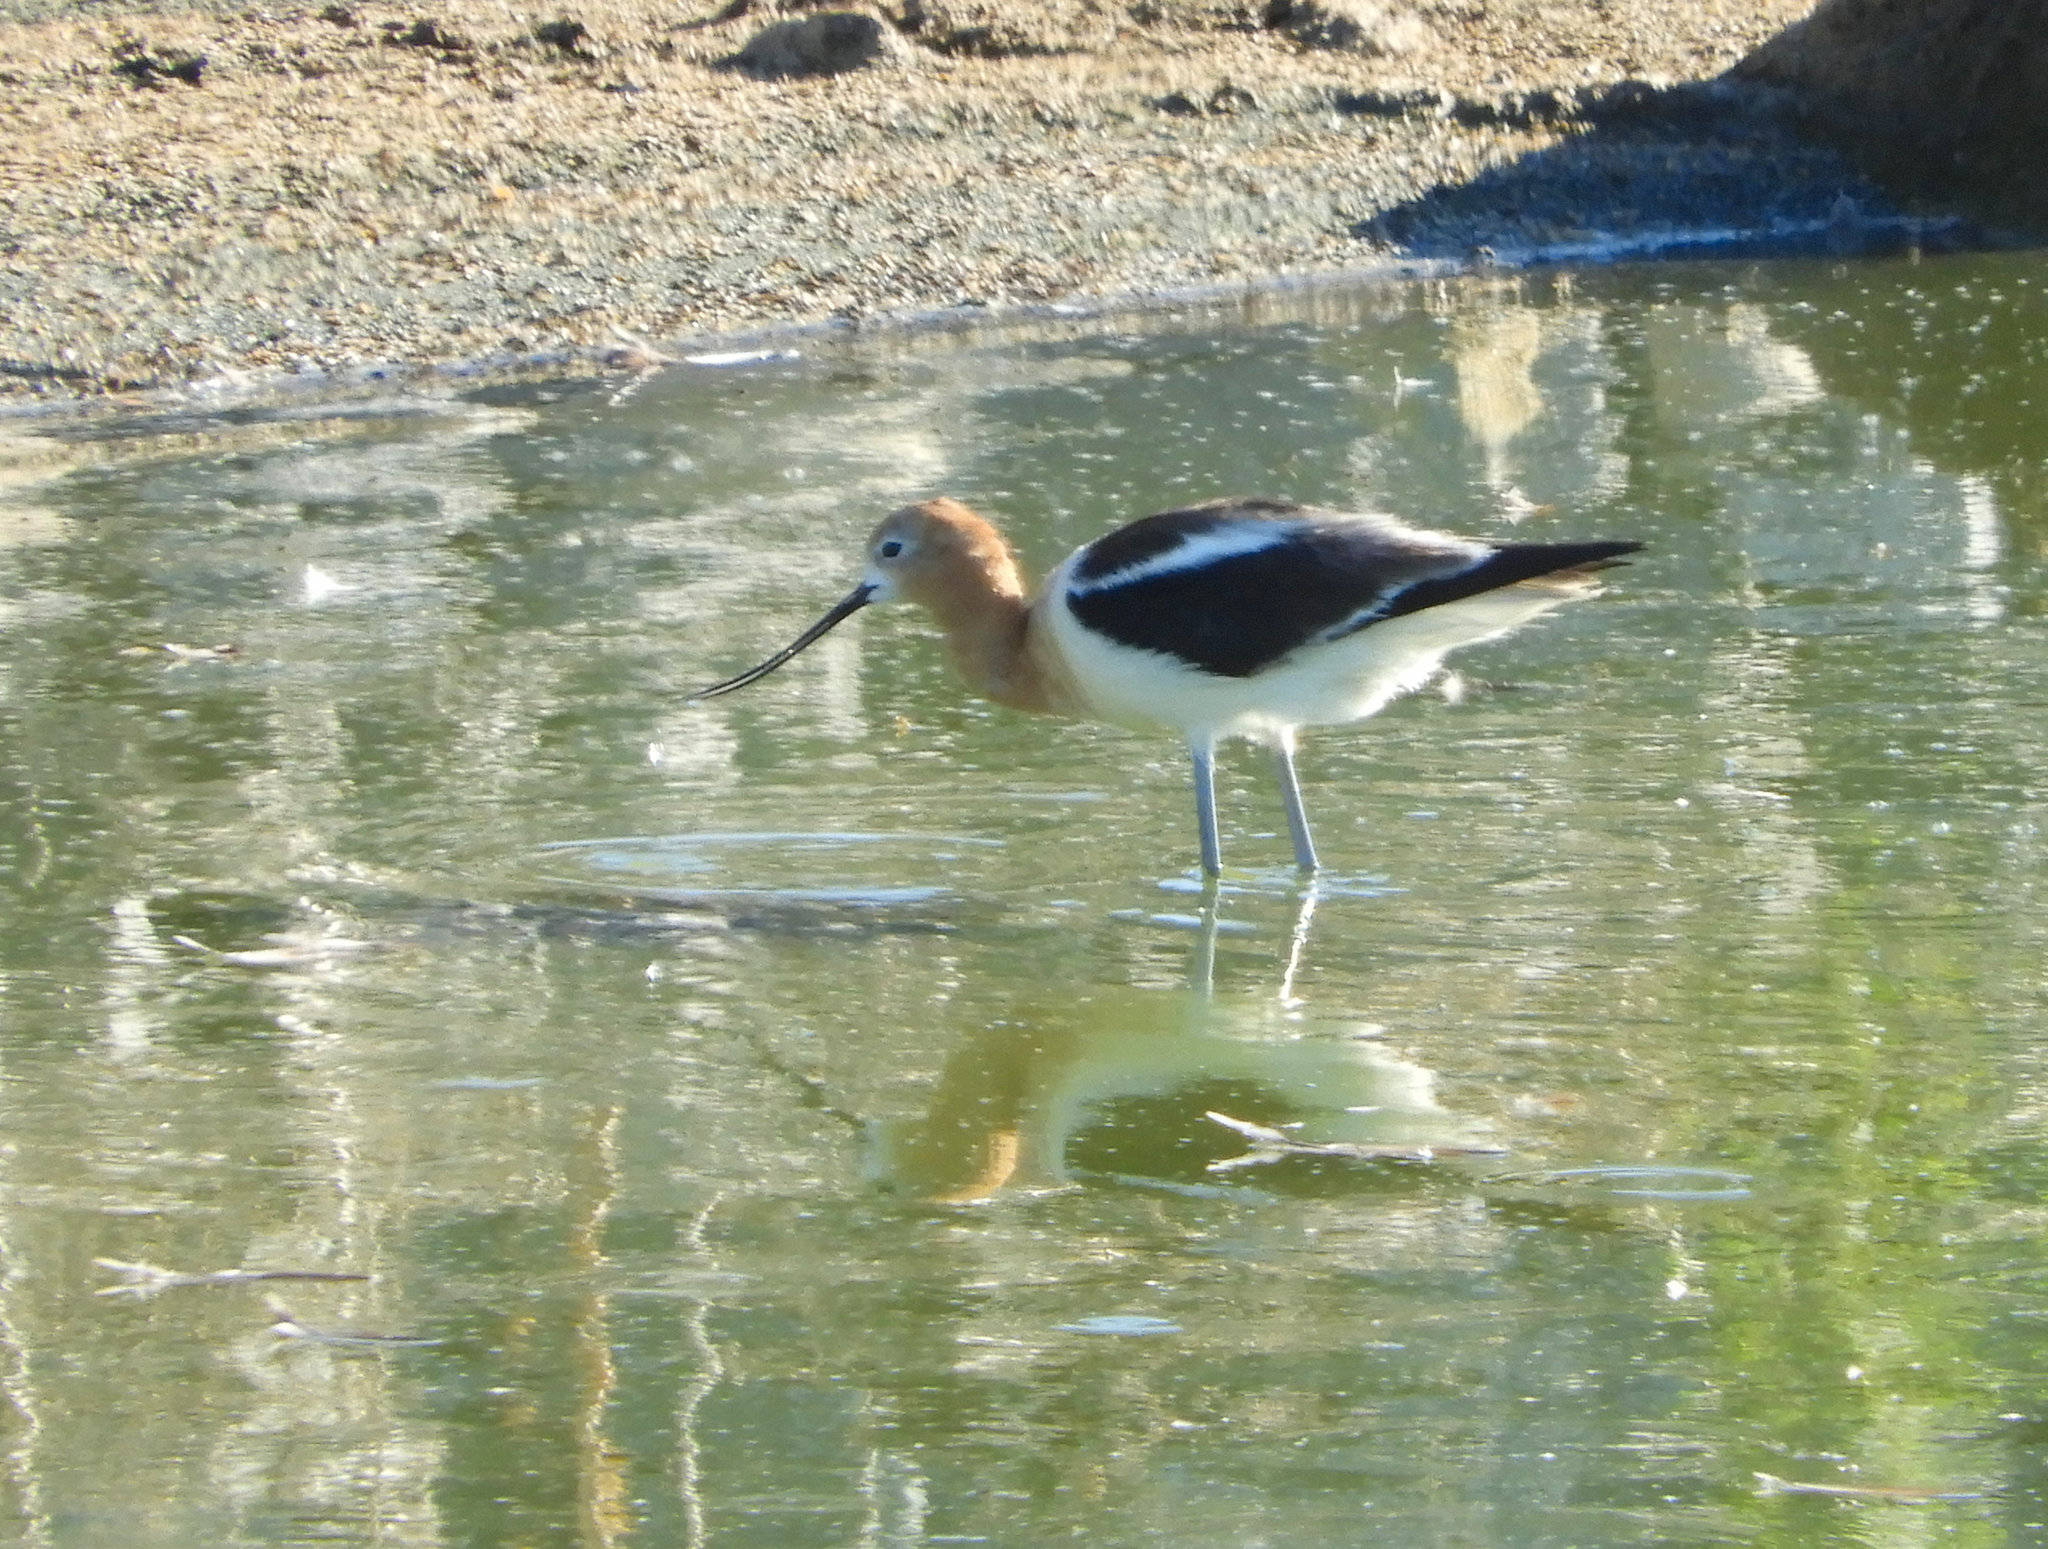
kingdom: Animalia
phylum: Chordata
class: Aves
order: Charadriiformes
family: Recurvirostridae
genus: Recurvirostra
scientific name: Recurvirostra americana
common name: American avocet
